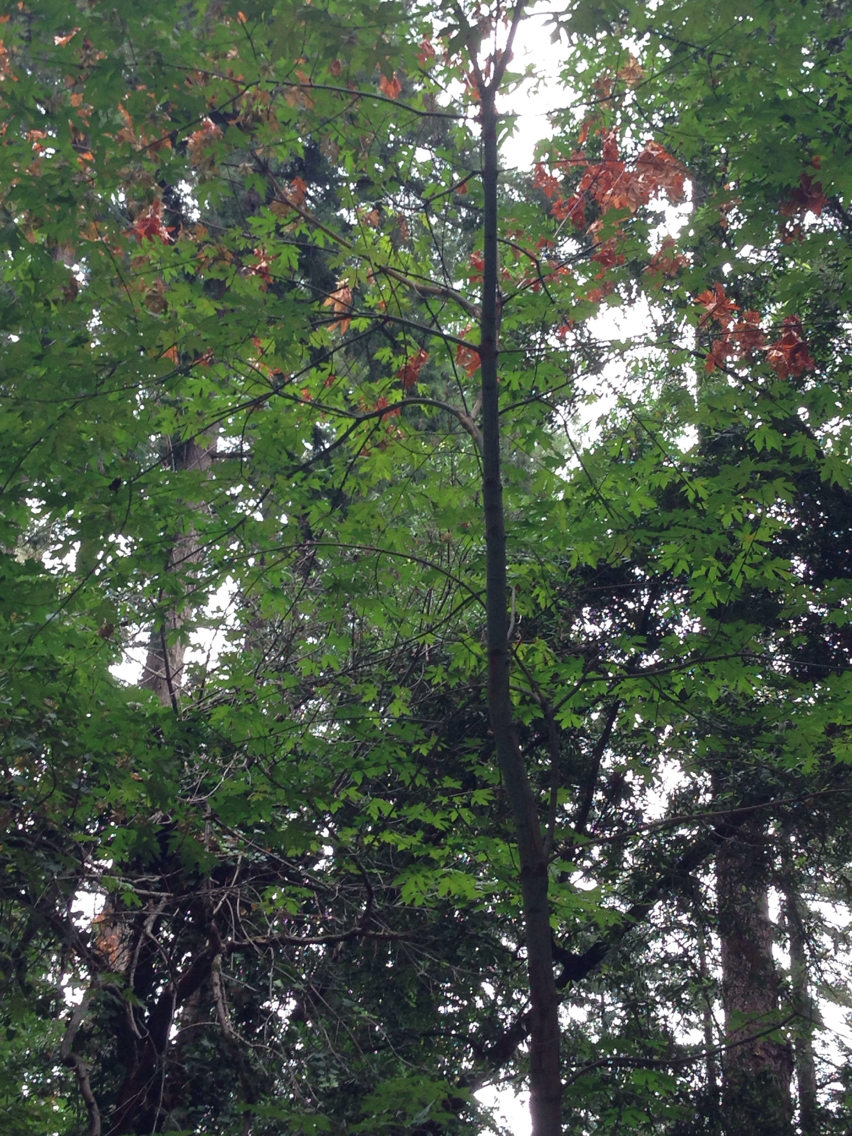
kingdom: Plantae
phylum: Tracheophyta
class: Magnoliopsida
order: Sapindales
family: Sapindaceae
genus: Acer
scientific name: Acer macrophyllum
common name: Oregon maple
